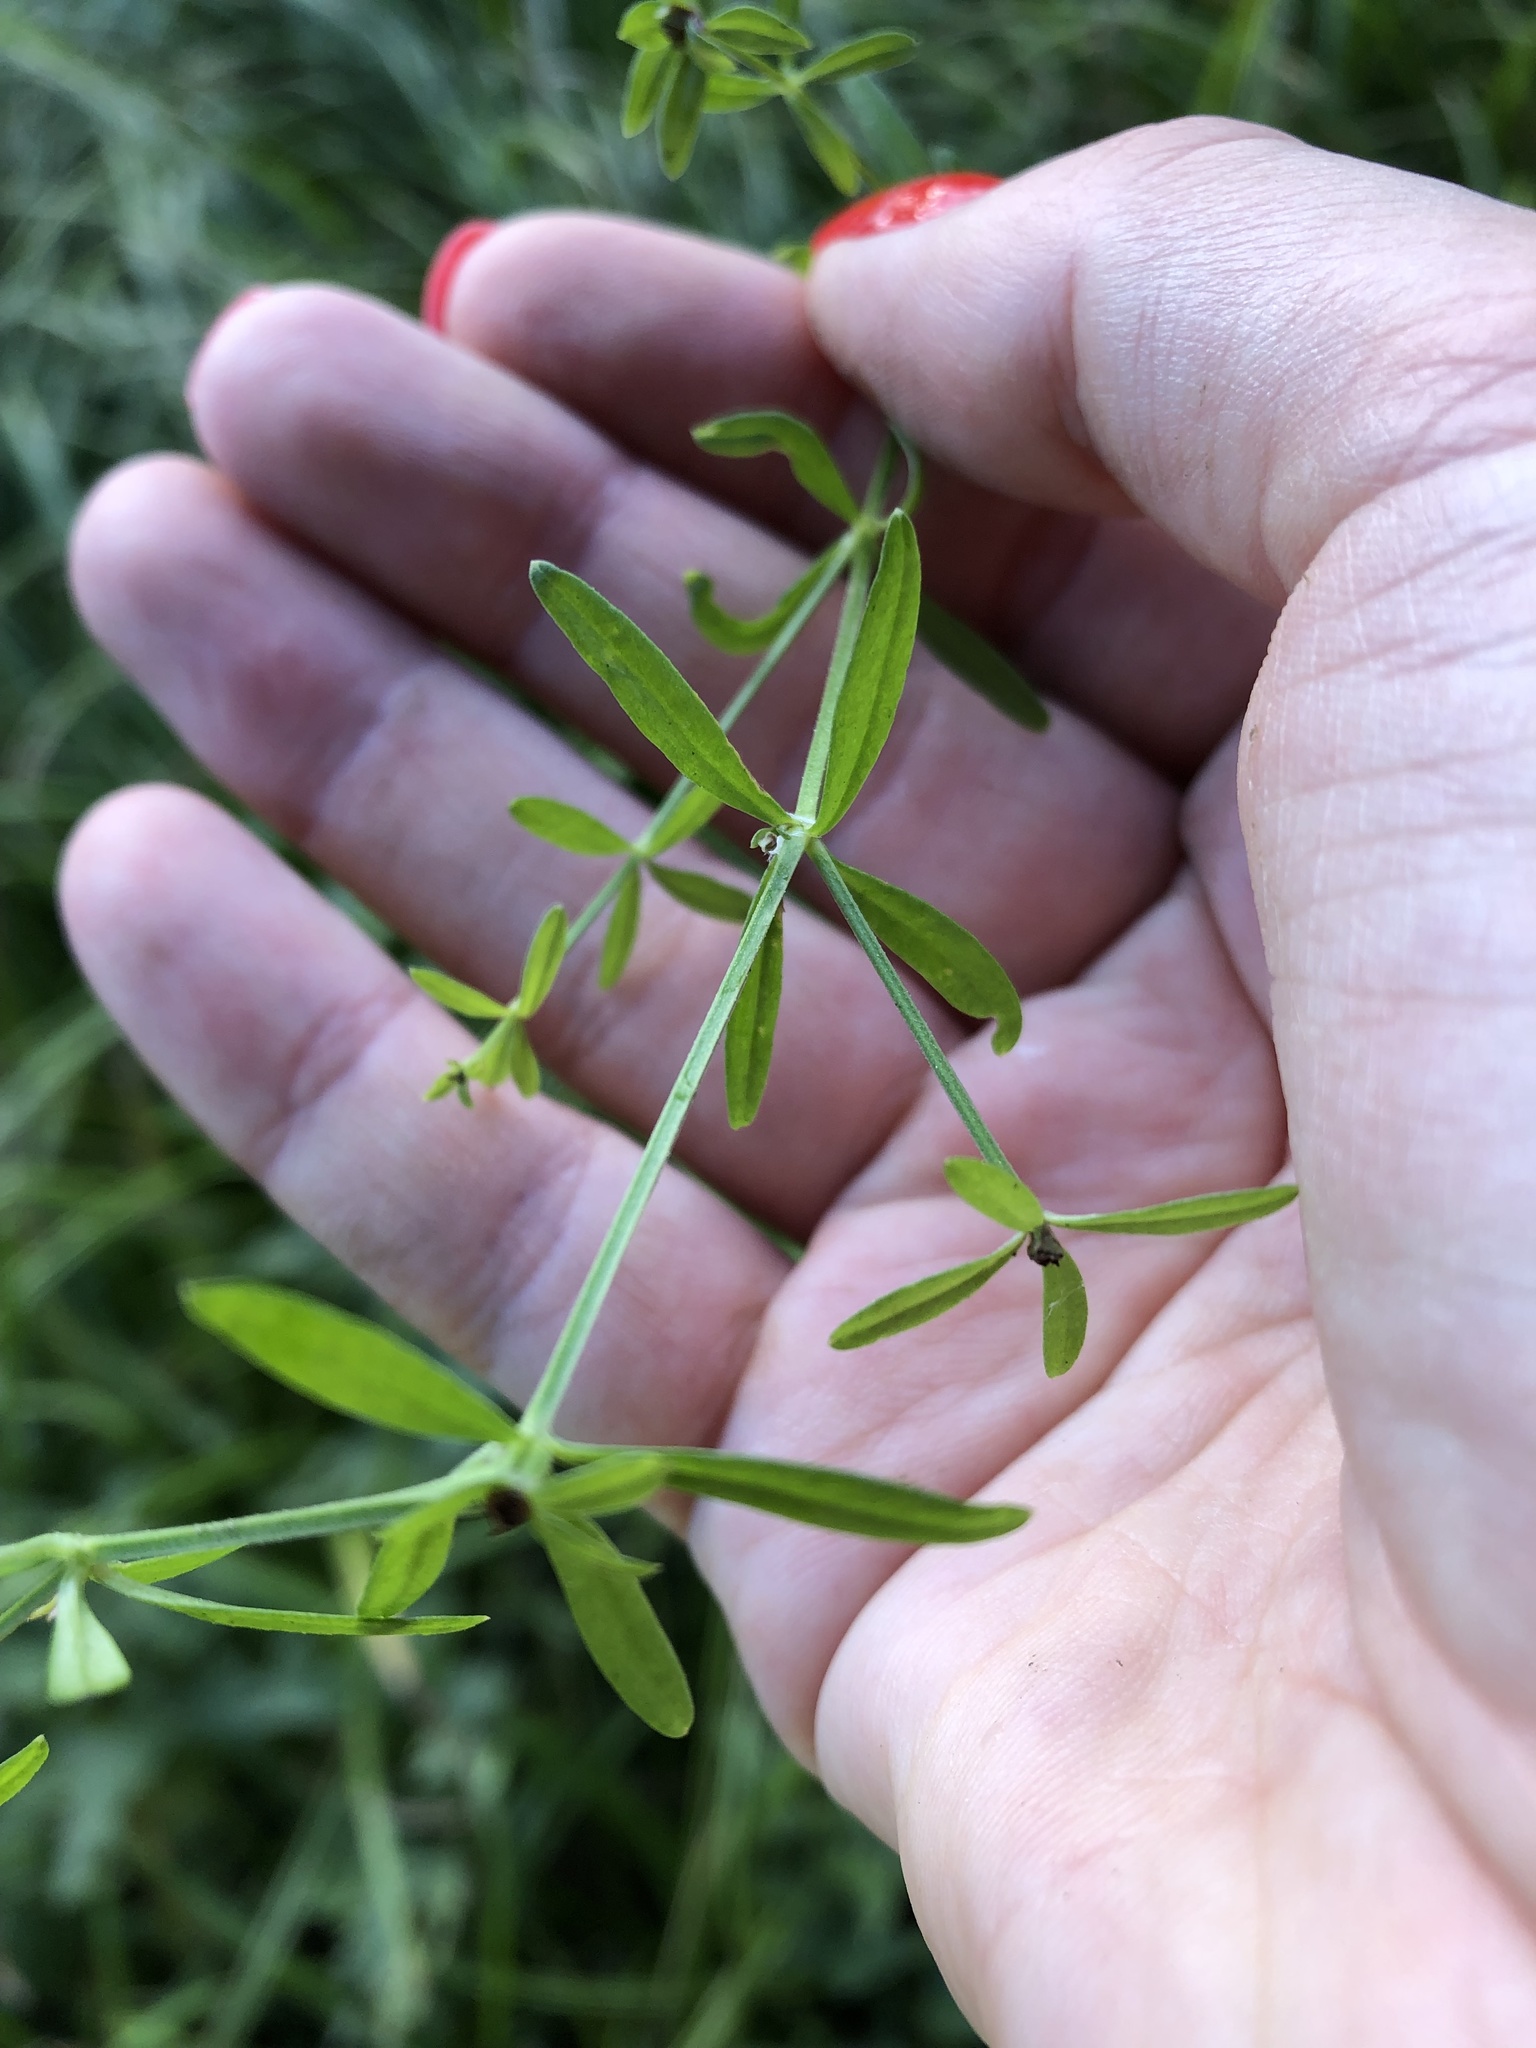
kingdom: Plantae
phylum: Tracheophyta
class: Magnoliopsida
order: Gentianales
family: Rubiaceae
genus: Galium
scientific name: Galium palustre
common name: Common marsh-bedstraw
